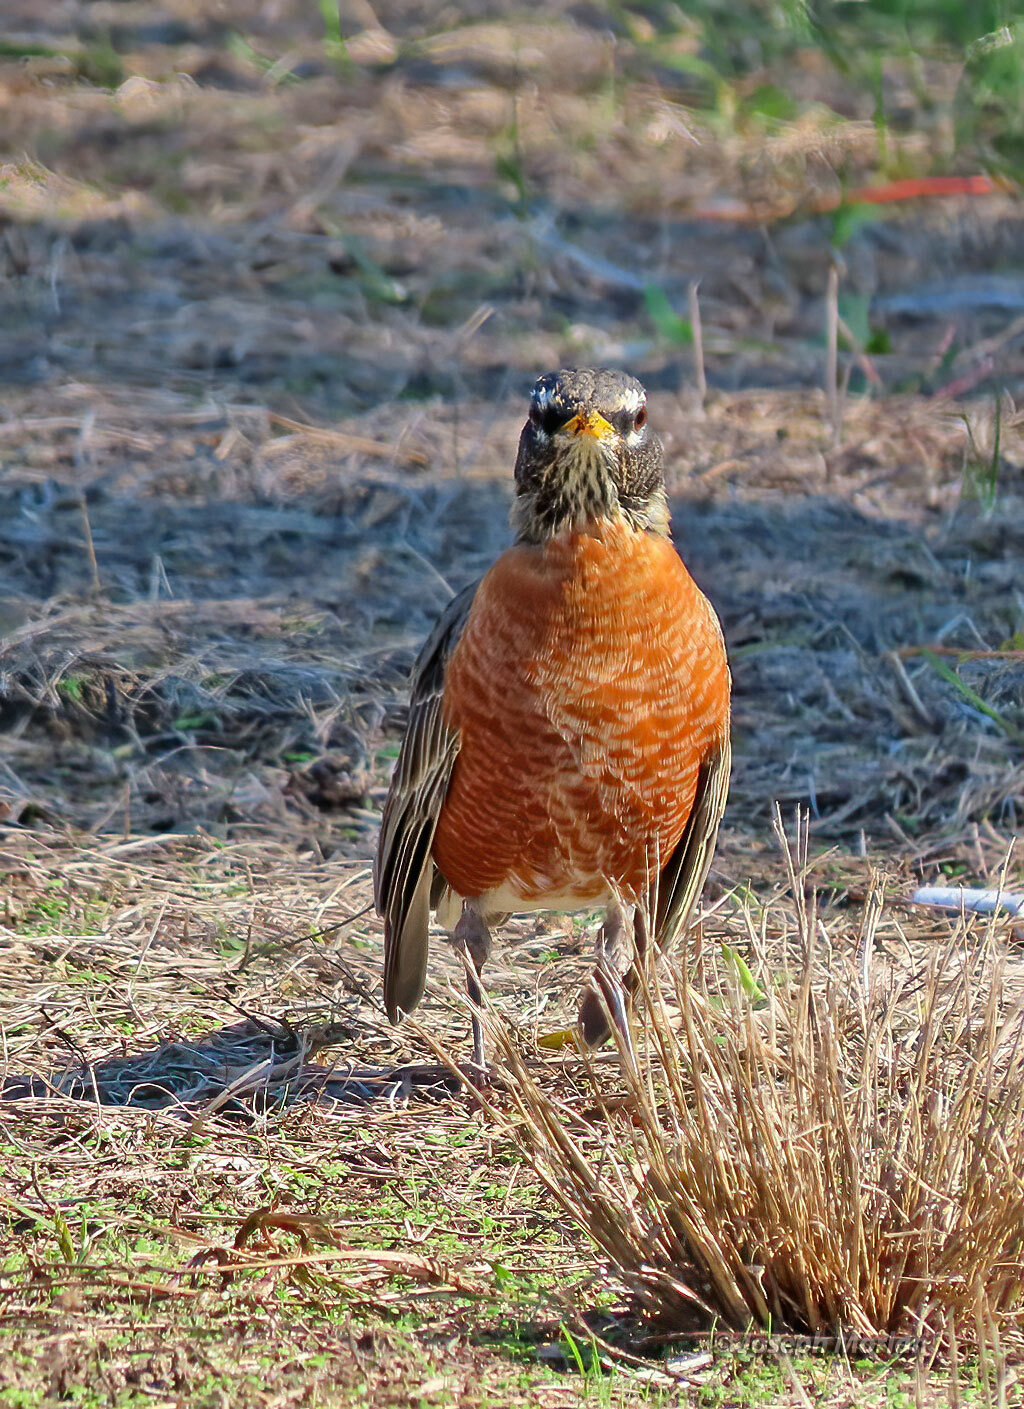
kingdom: Animalia
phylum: Chordata
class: Aves
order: Passeriformes
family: Turdidae
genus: Turdus
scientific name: Turdus migratorius
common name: American robin
